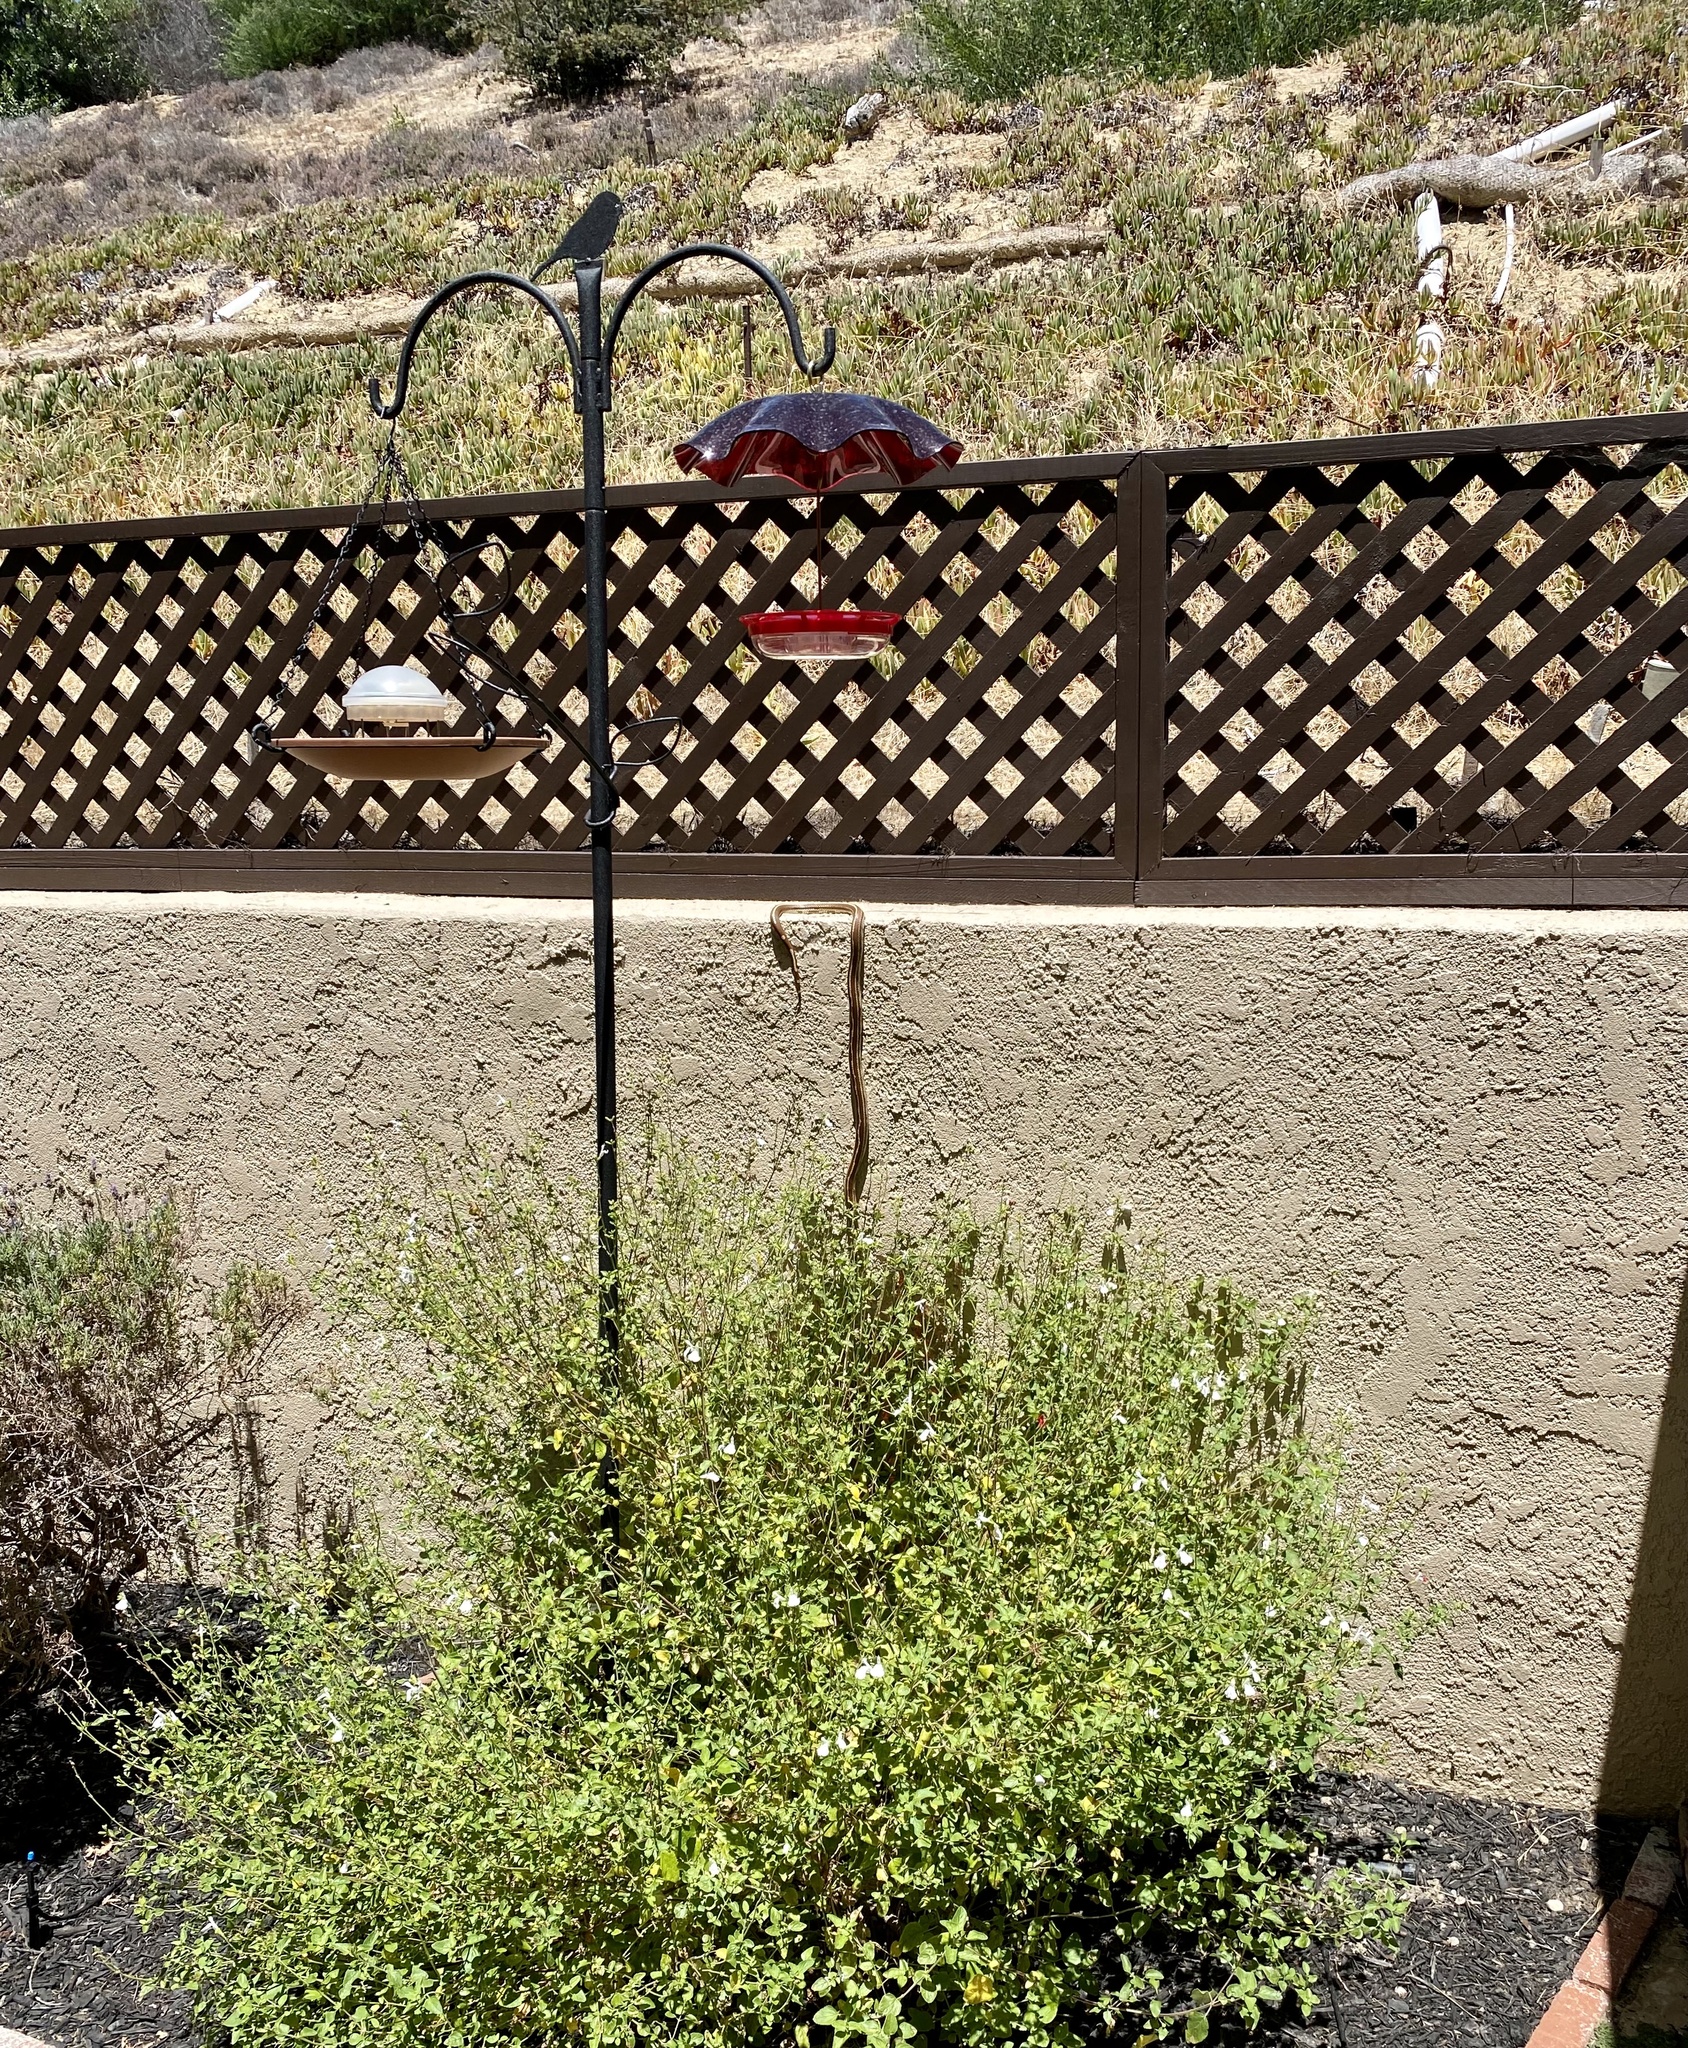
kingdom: Animalia
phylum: Chordata
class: Squamata
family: Colubridae
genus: Lampropeltis
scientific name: Lampropeltis californiae
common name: California kingsnake
